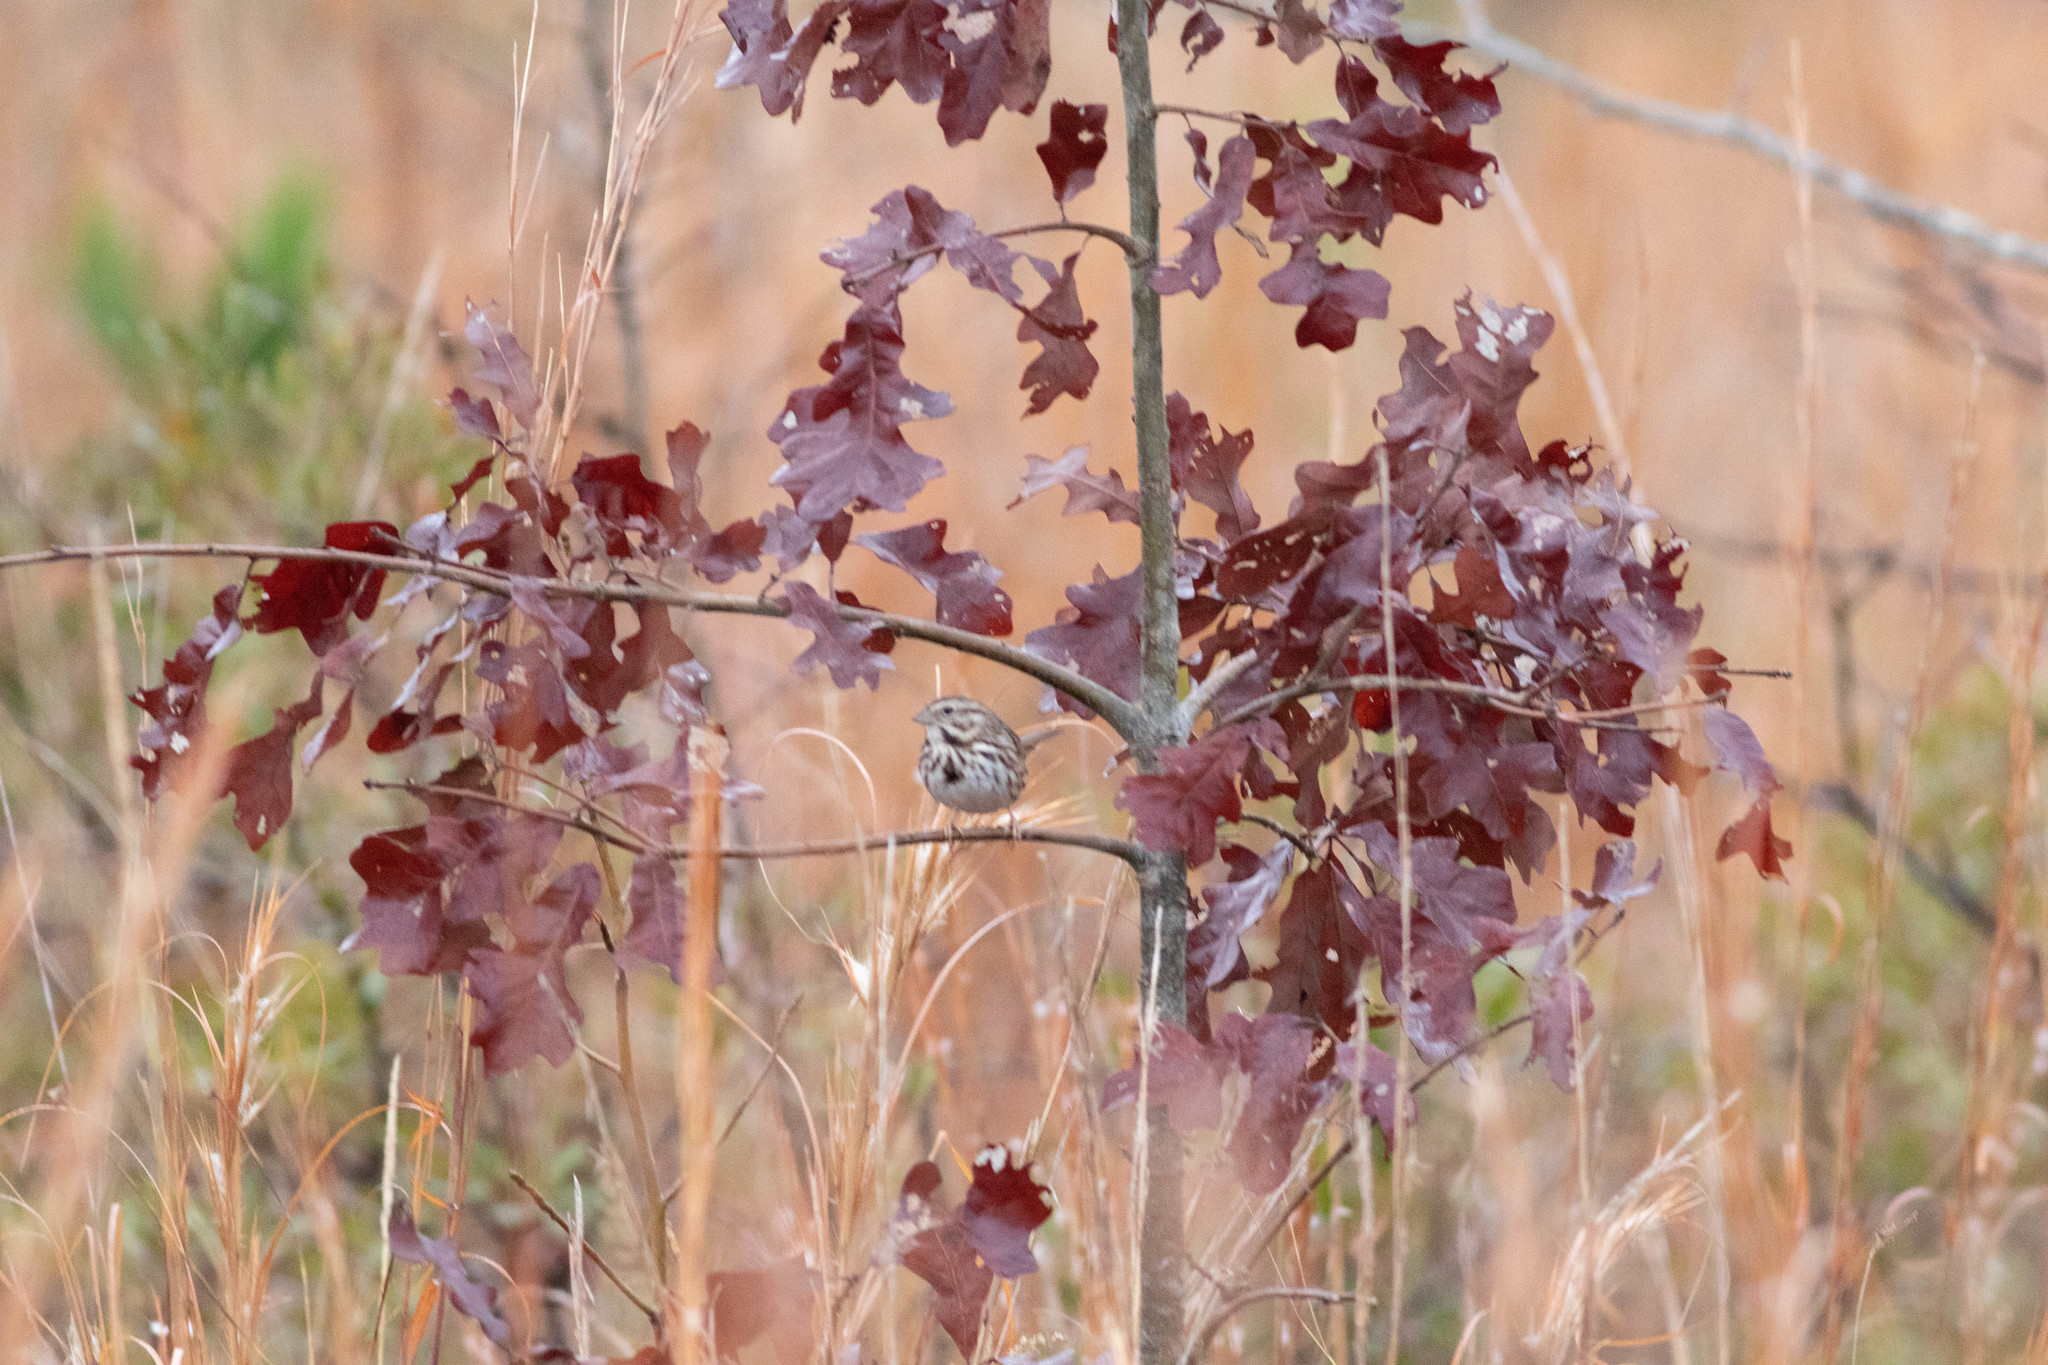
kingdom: Animalia
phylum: Chordata
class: Aves
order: Passeriformes
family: Passerellidae
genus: Melospiza
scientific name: Melospiza melodia
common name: Song sparrow
